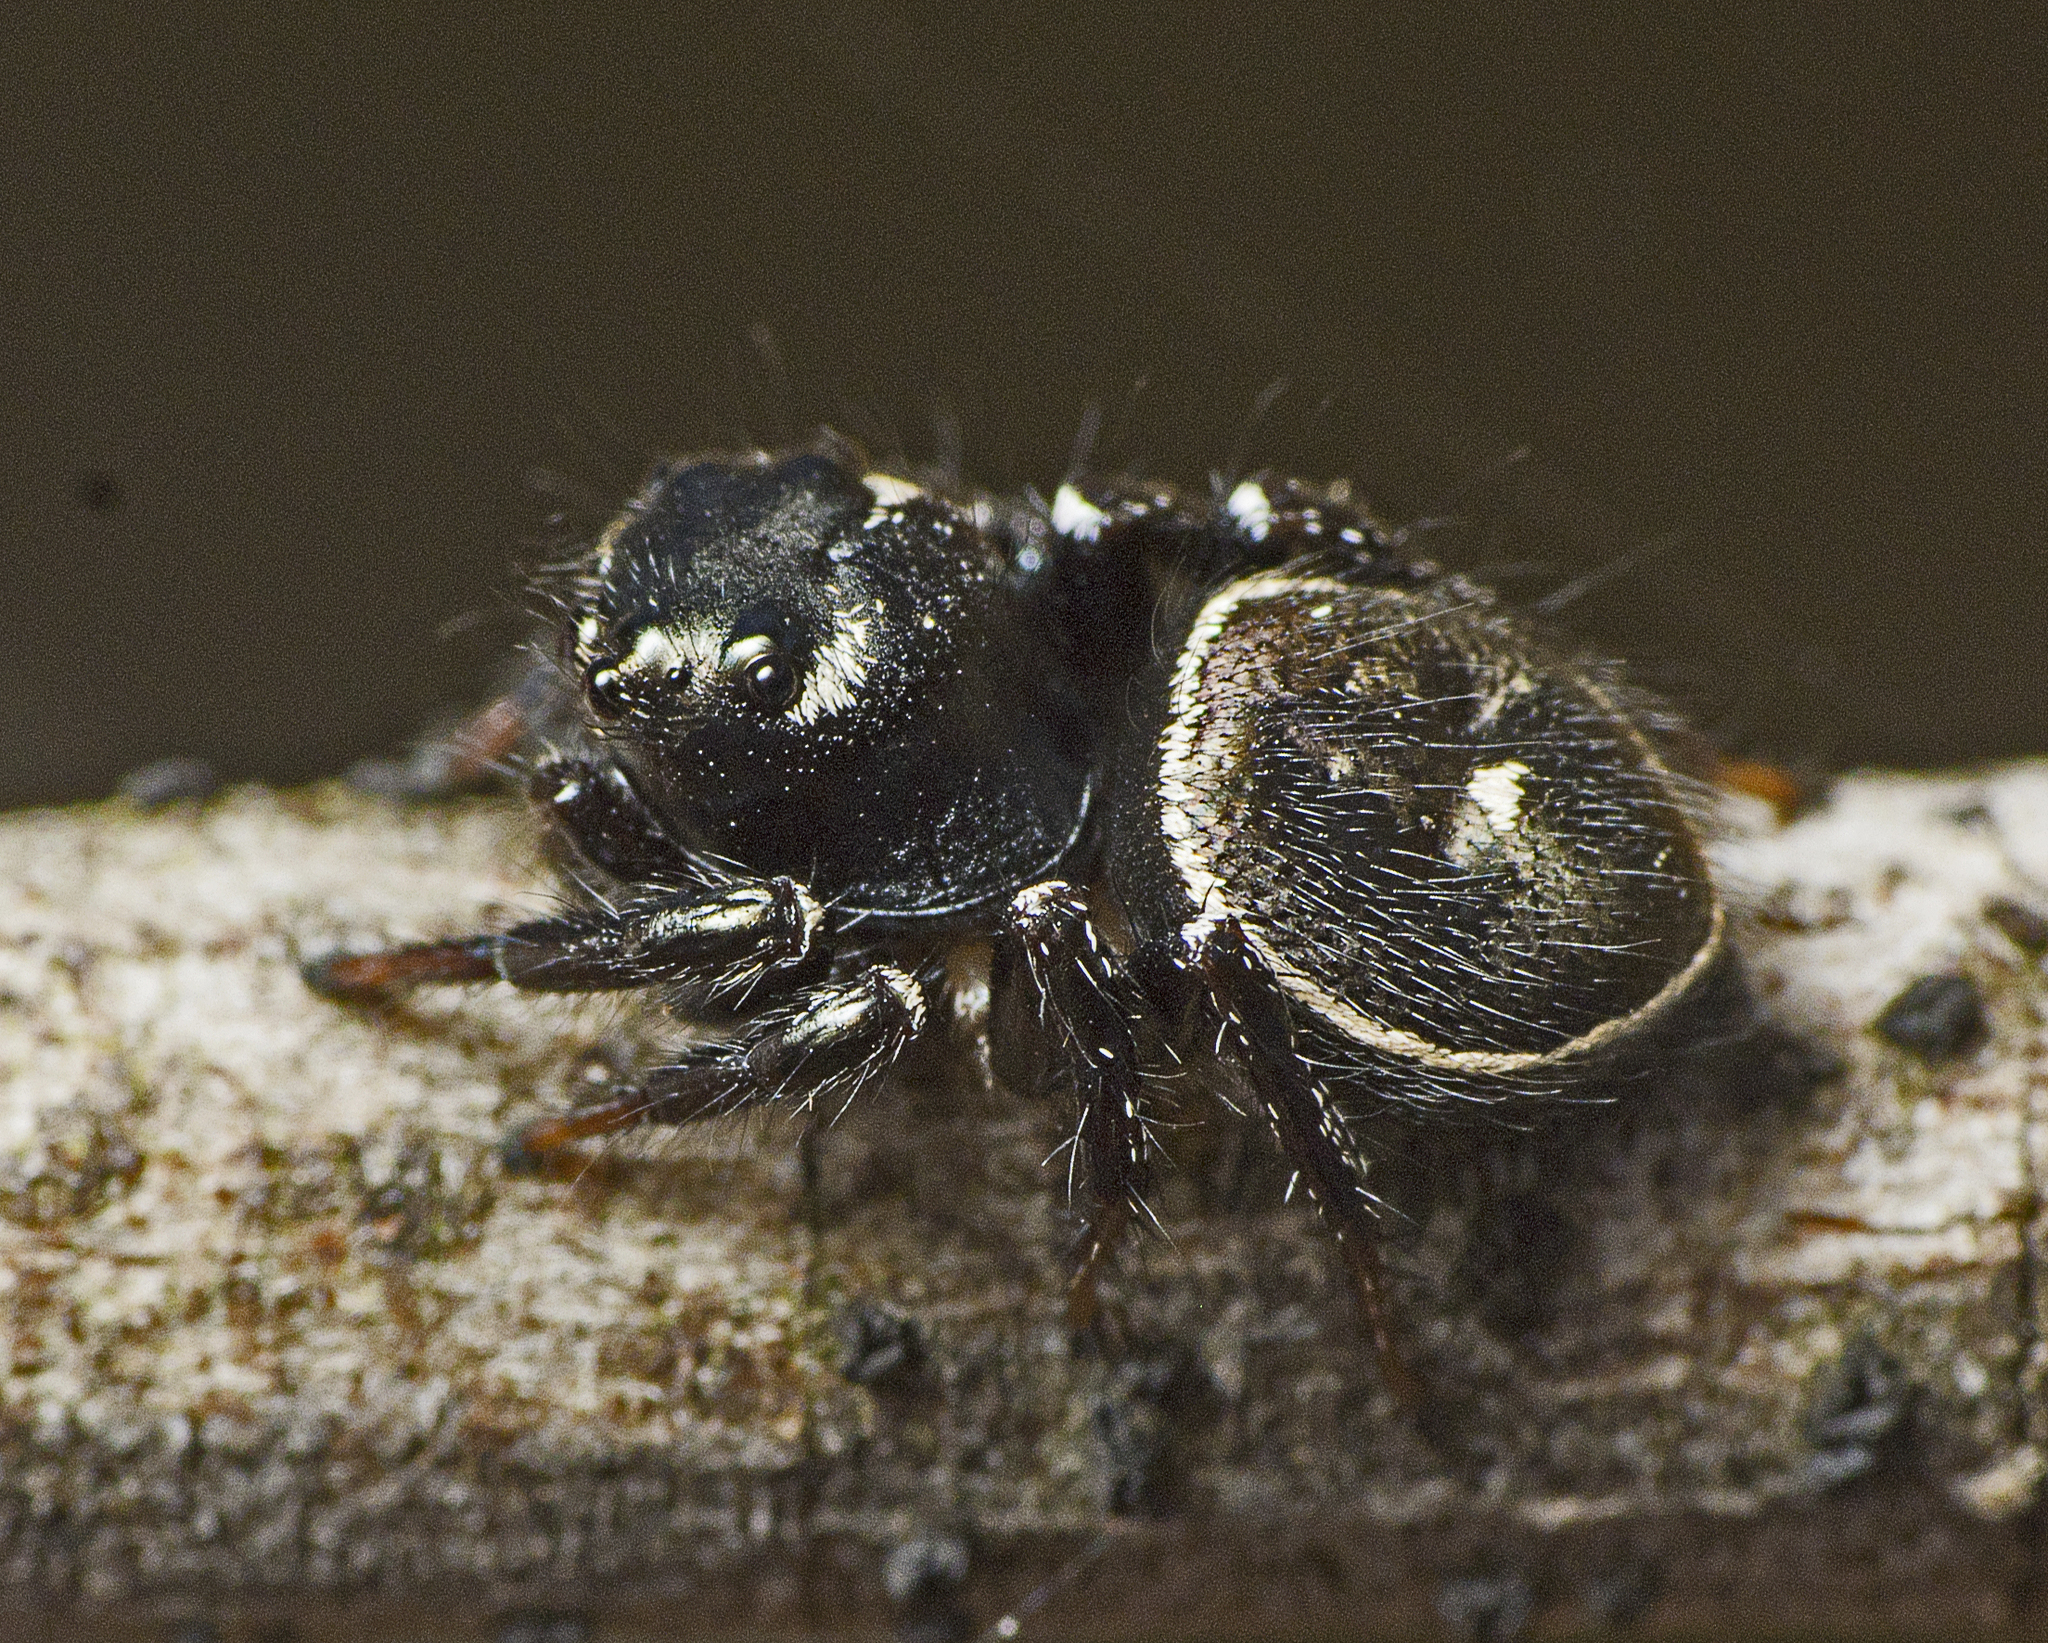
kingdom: Animalia
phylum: Arthropoda
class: Arachnida
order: Araneae
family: Salticidae
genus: Zenodorus
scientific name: Zenodorus orbiculatus
